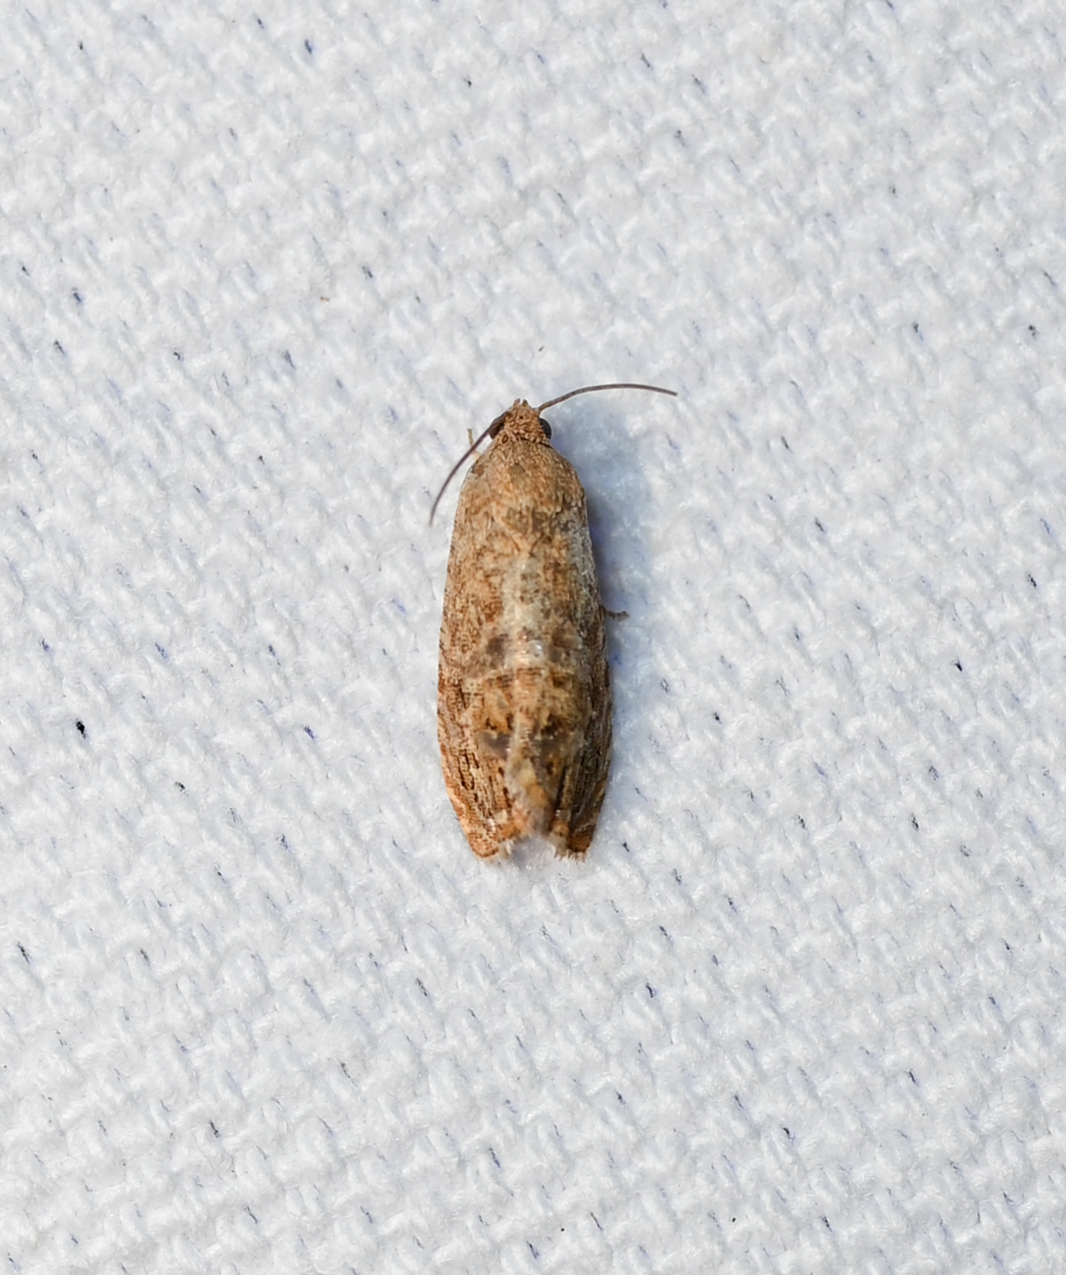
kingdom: Animalia
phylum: Arthropoda
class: Insecta
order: Lepidoptera
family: Tortricidae
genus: Cydia
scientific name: Cydia latiferreana
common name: Filbertworm moth
